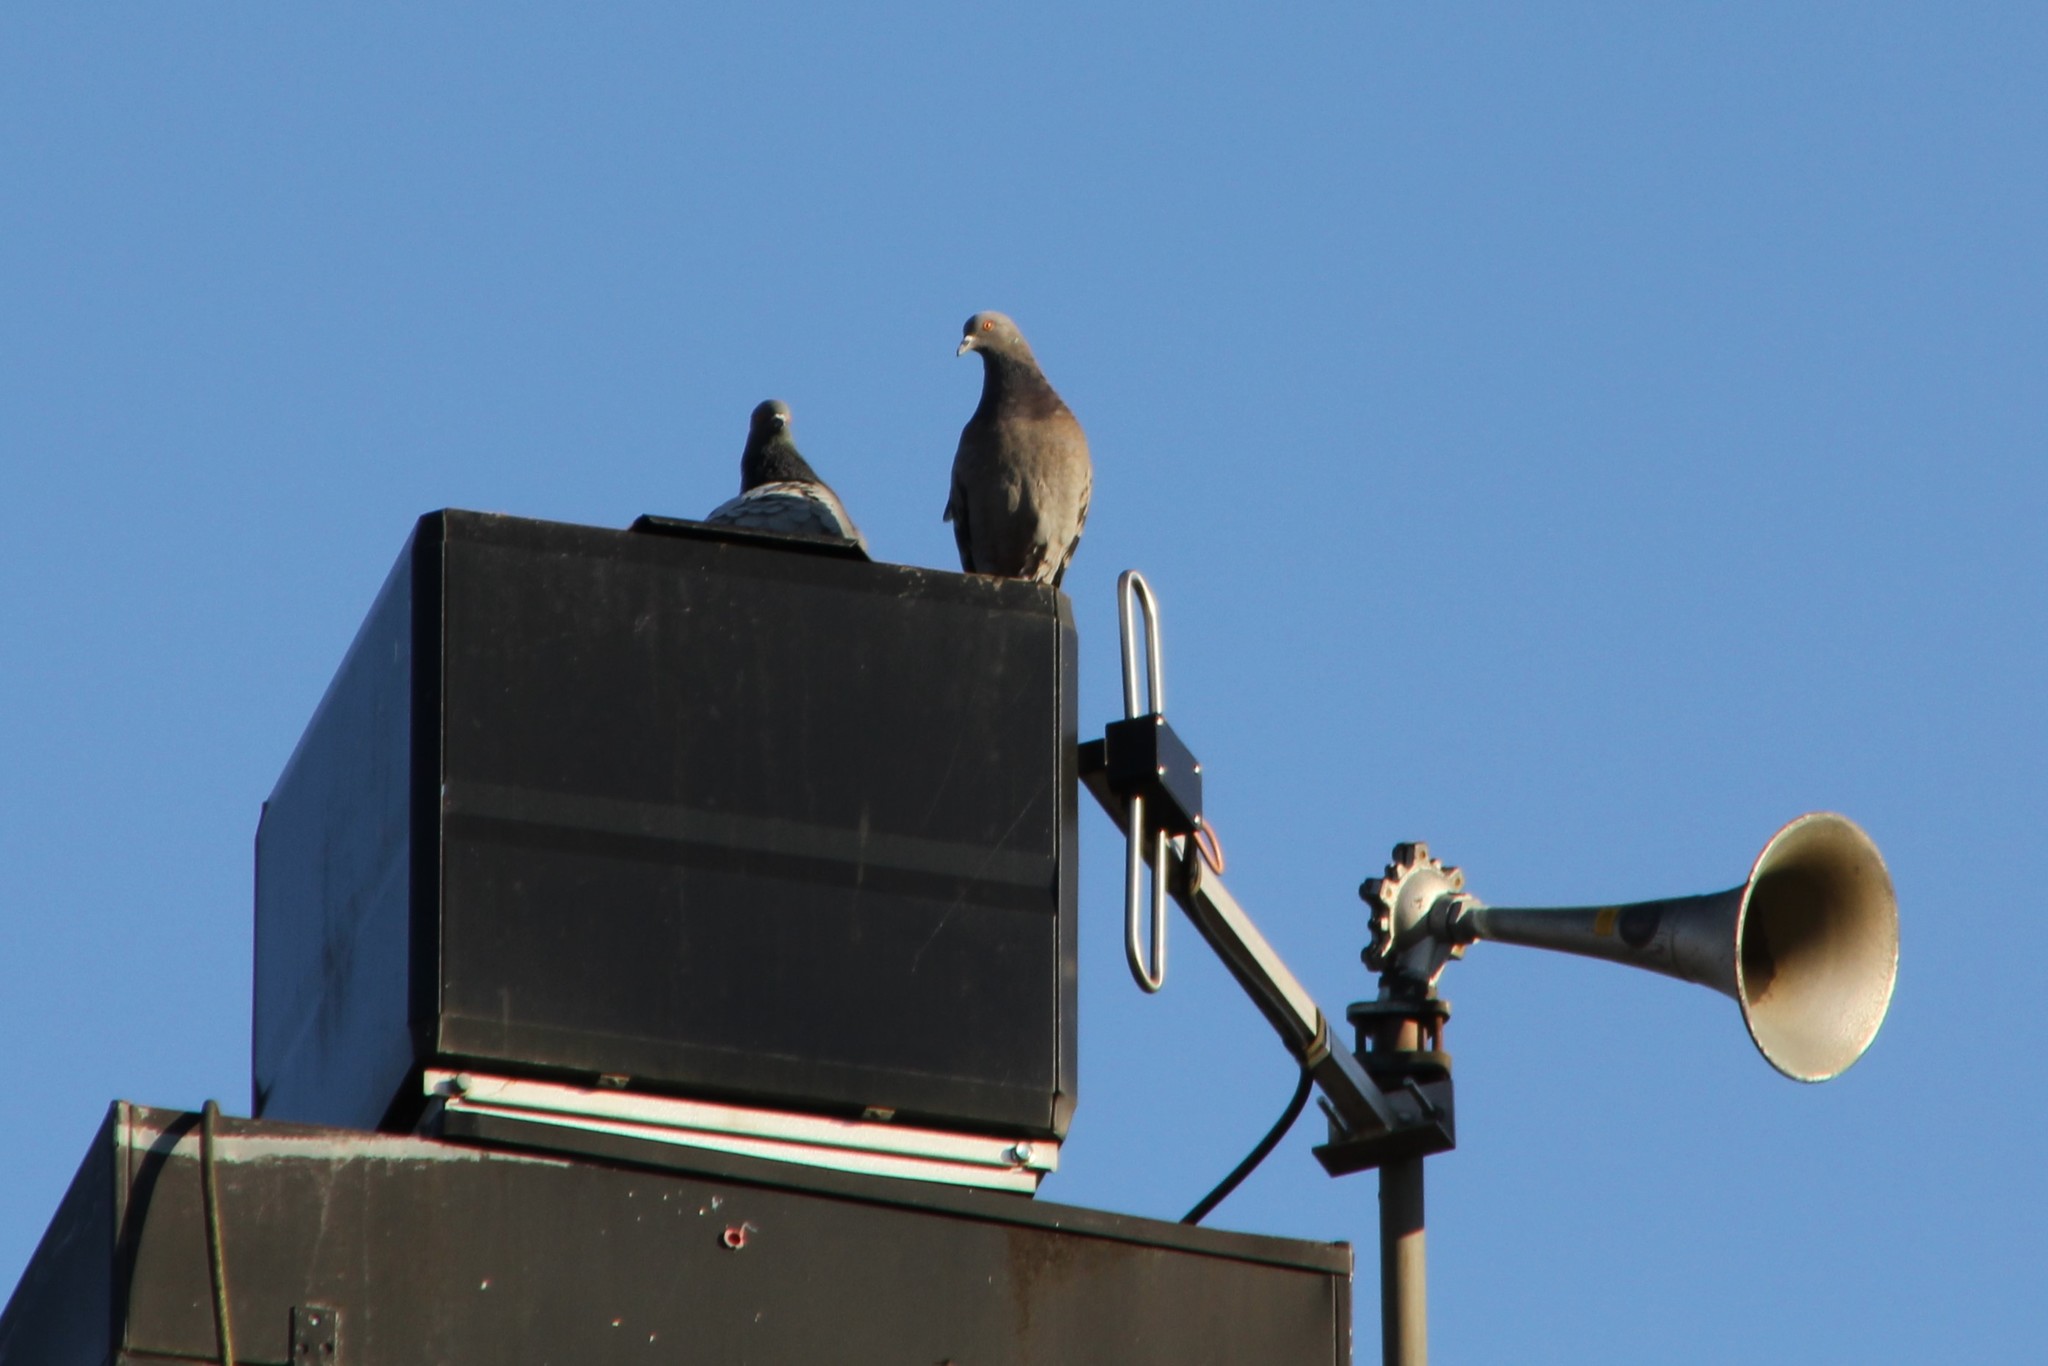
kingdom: Animalia
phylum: Chordata
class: Aves
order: Columbiformes
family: Columbidae
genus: Columba
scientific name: Columba livia
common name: Rock pigeon
